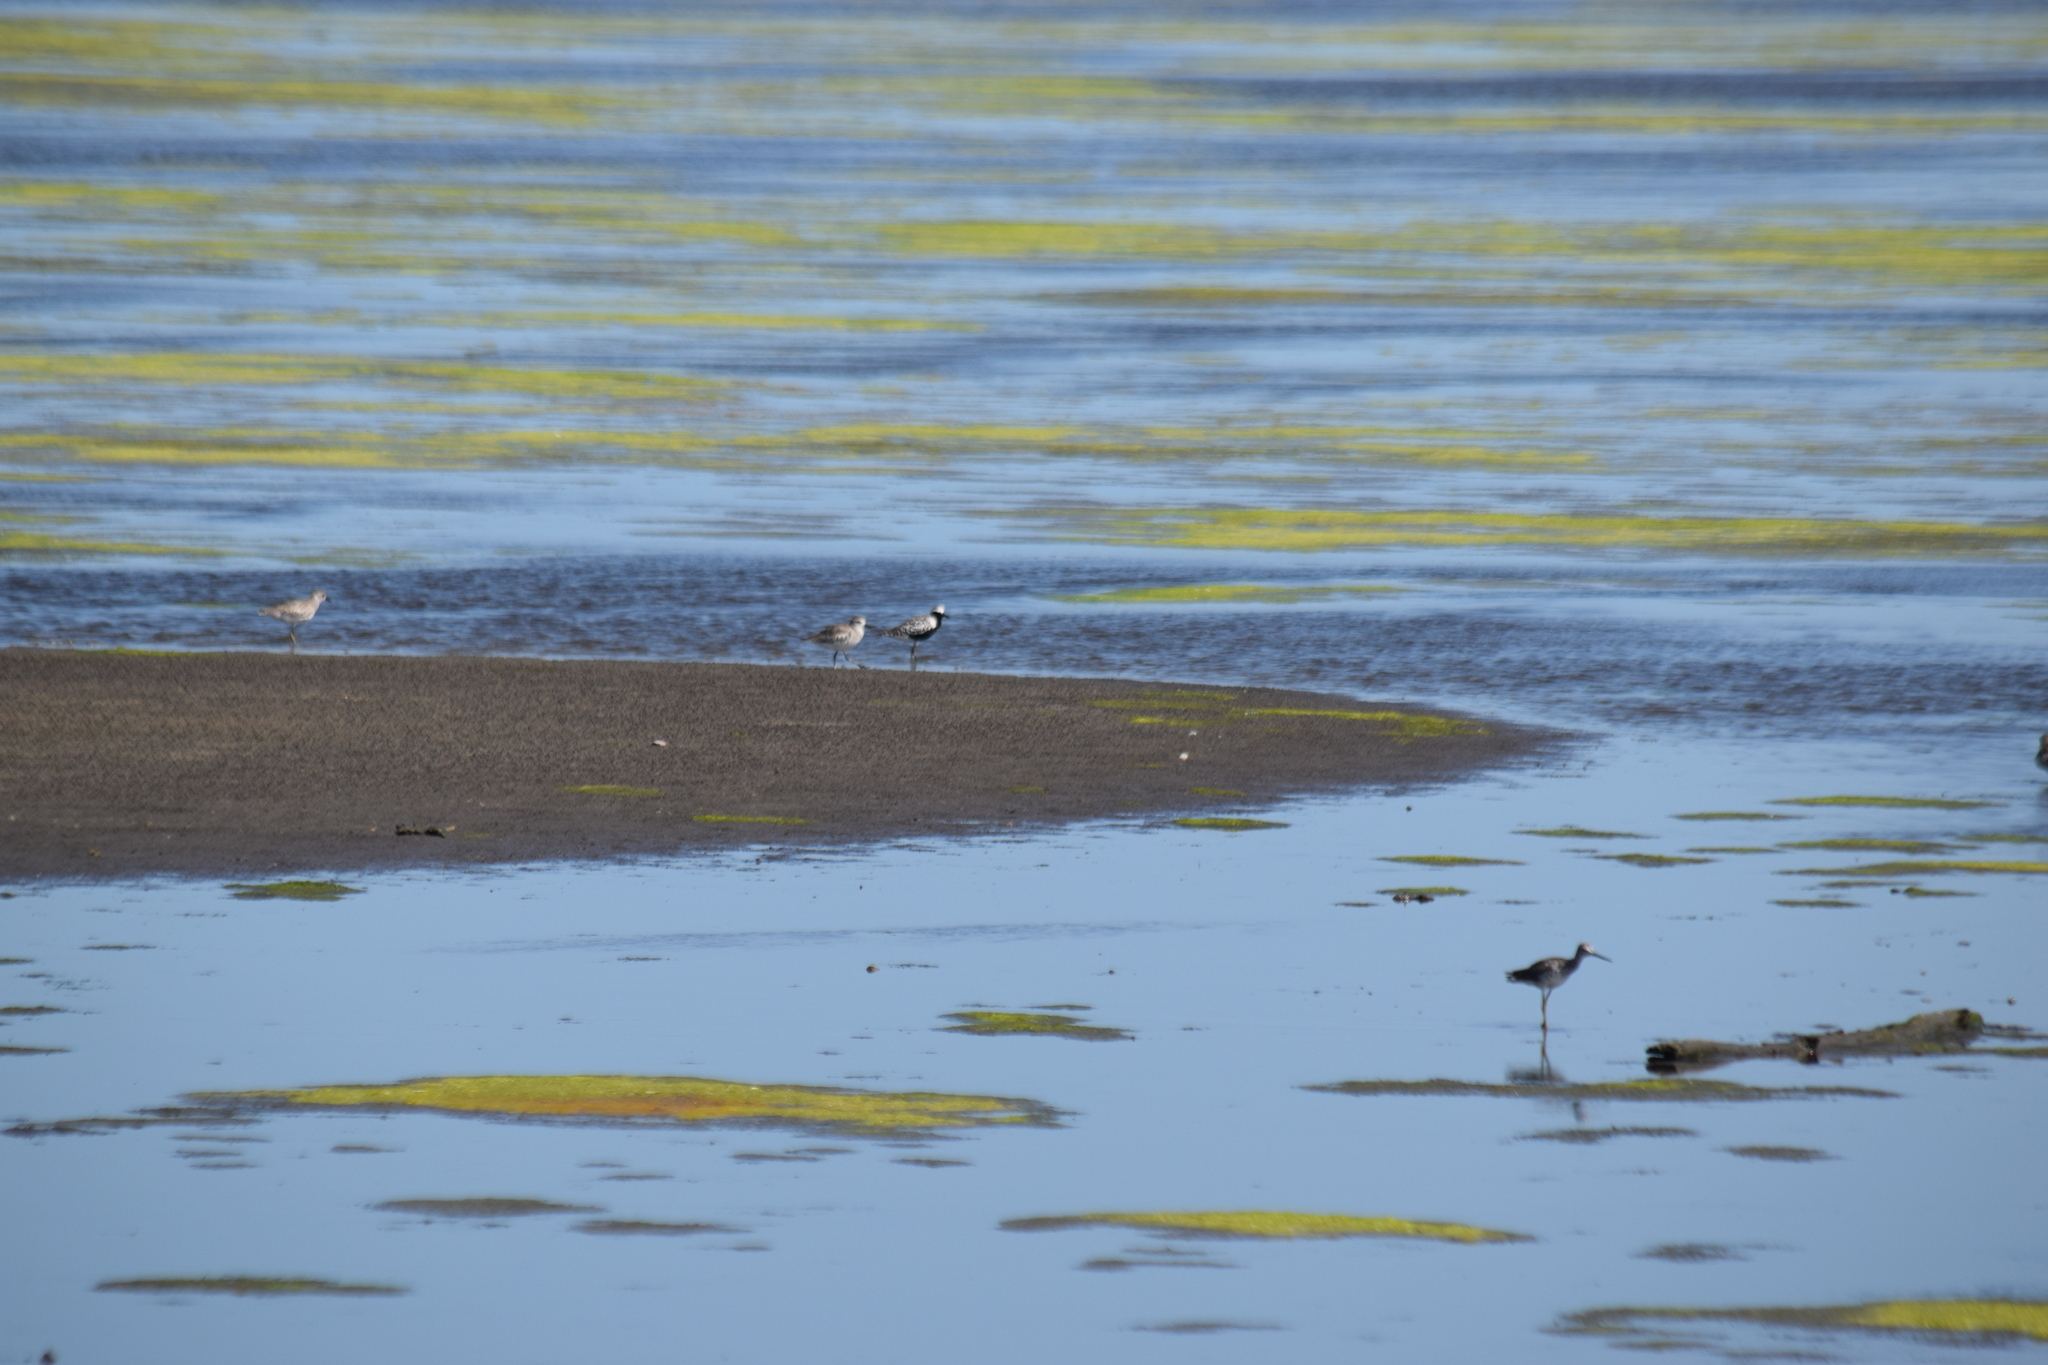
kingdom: Animalia
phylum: Chordata
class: Aves
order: Charadriiformes
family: Charadriidae
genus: Pluvialis
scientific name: Pluvialis squatarola
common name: Grey plover
